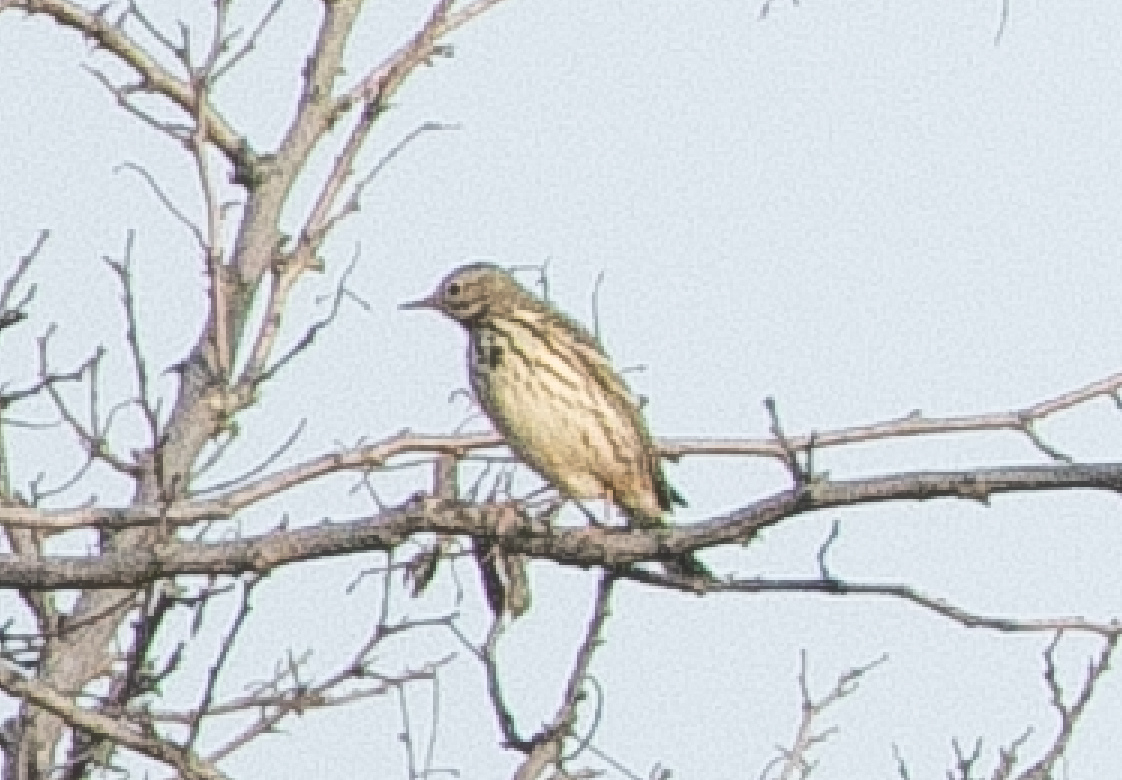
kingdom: Animalia
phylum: Chordata
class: Aves
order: Passeriformes
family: Motacillidae
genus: Anthus
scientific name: Anthus pratensis
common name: Meadow pipit
